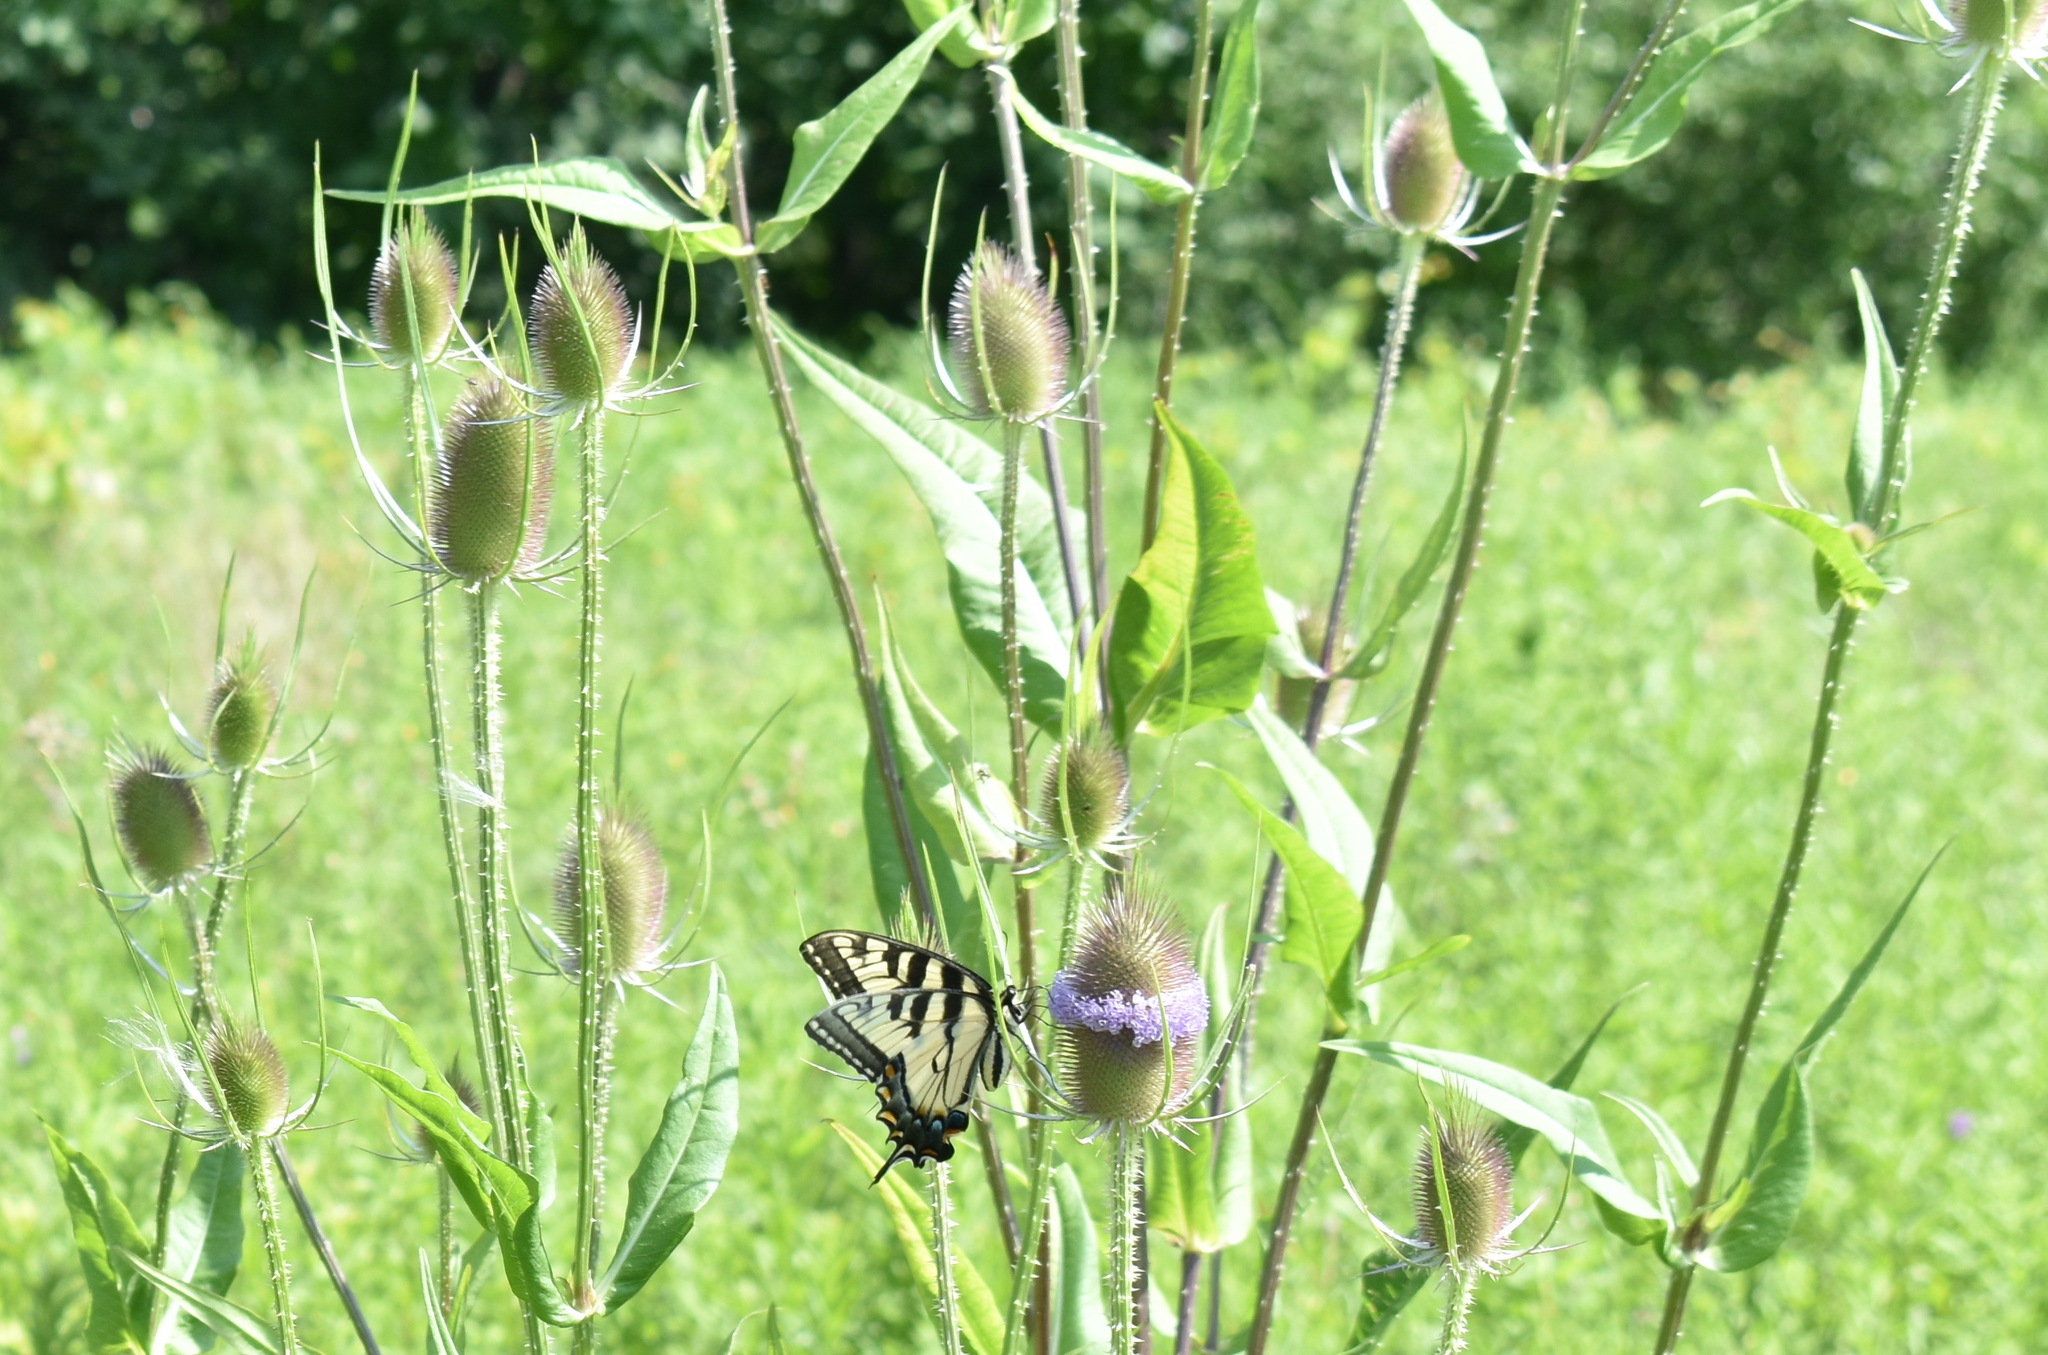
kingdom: Animalia
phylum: Arthropoda
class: Insecta
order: Lepidoptera
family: Papilionidae
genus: Papilio
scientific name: Papilio
